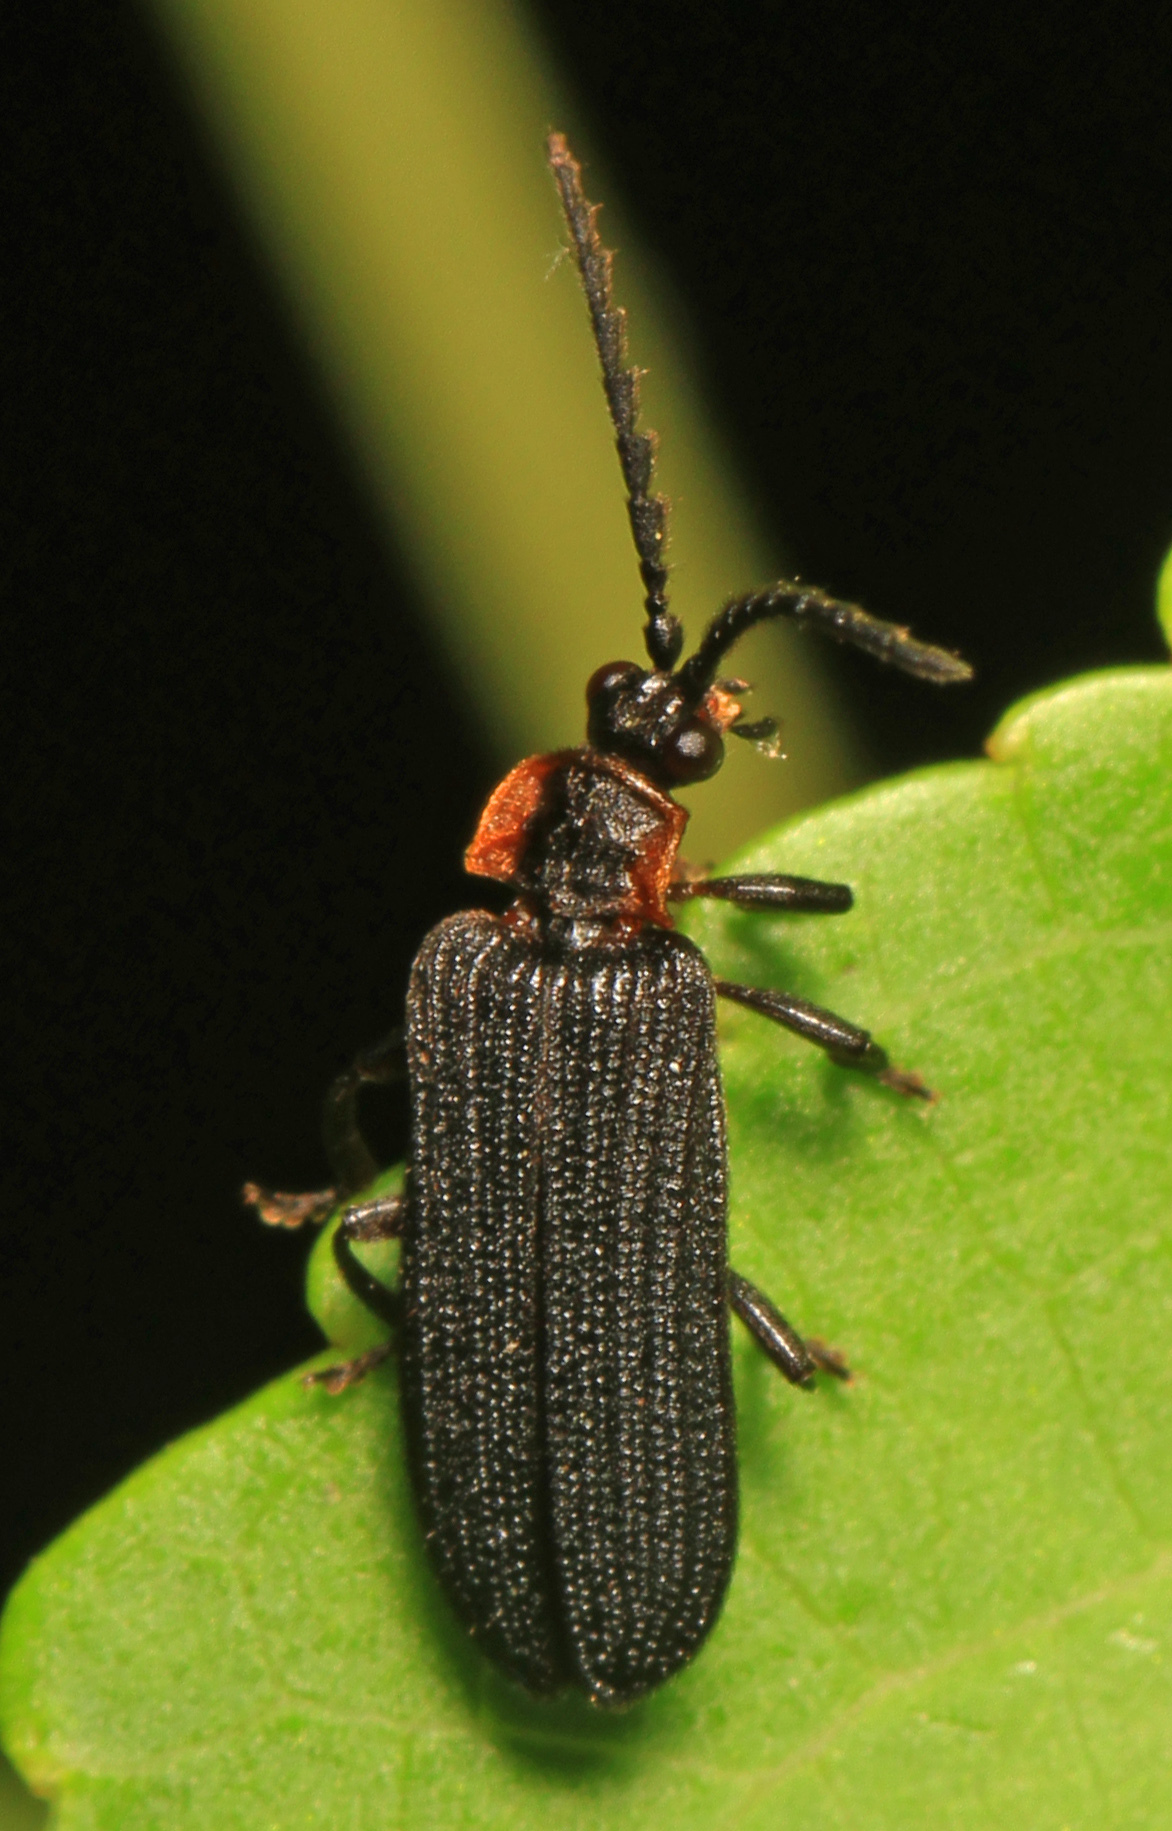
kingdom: Animalia
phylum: Arthropoda
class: Insecta
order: Coleoptera
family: Lycidae
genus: Eropterus
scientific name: Eropterus trilineatus
